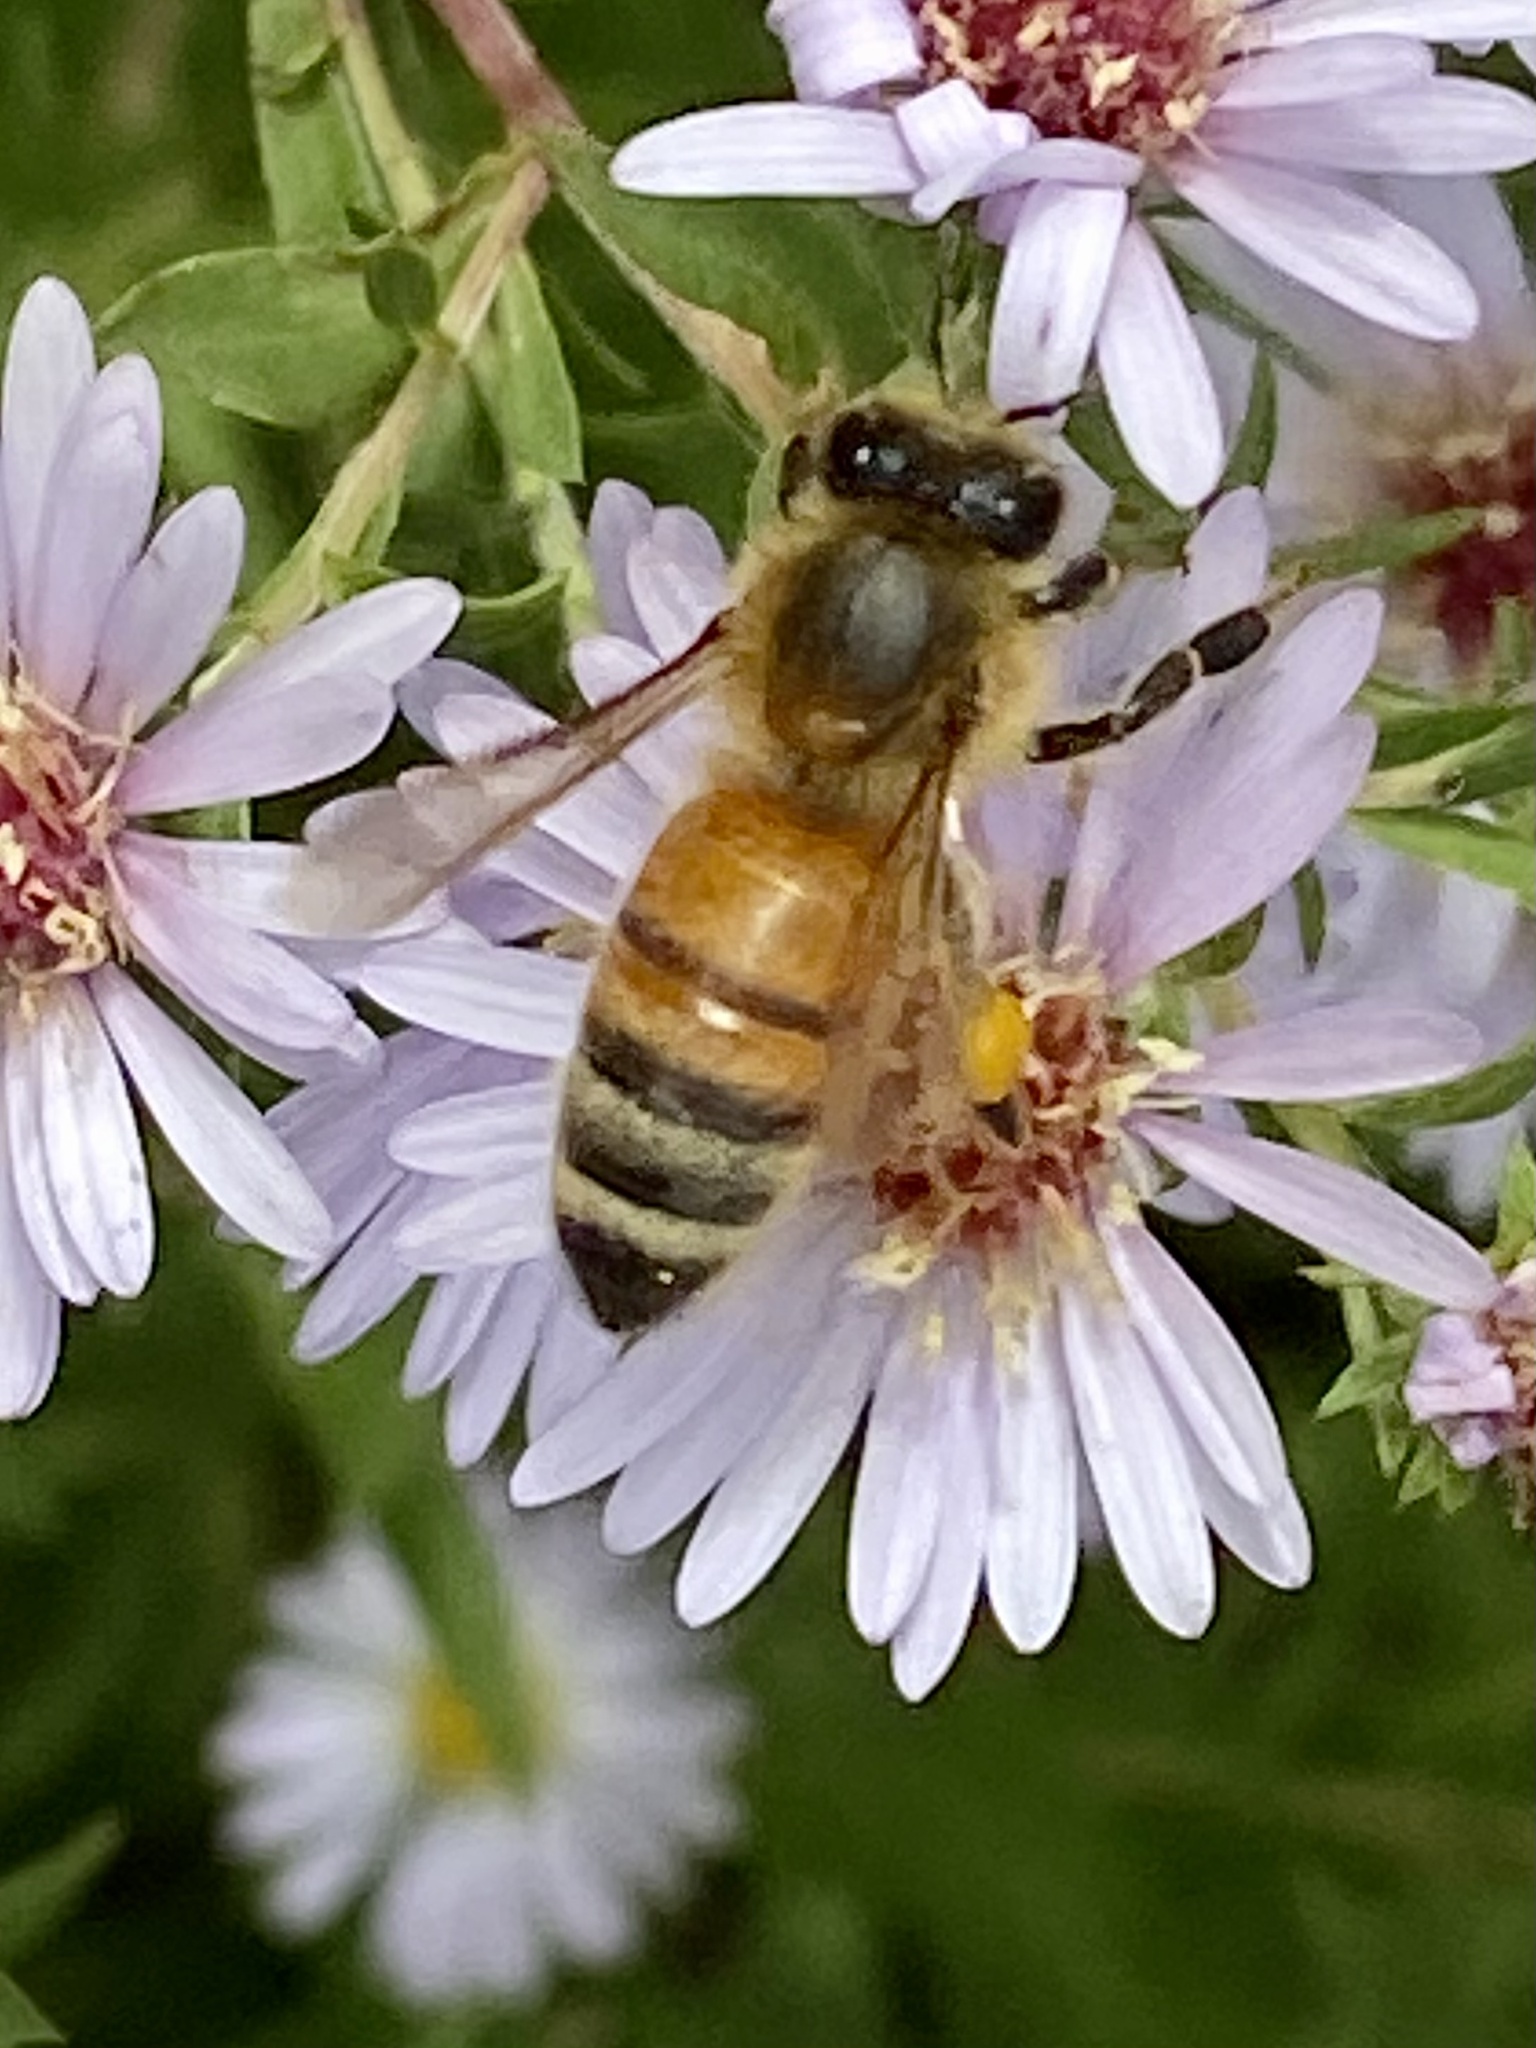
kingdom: Animalia
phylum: Arthropoda
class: Insecta
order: Hymenoptera
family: Apidae
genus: Apis
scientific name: Apis mellifera
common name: Honey bee
